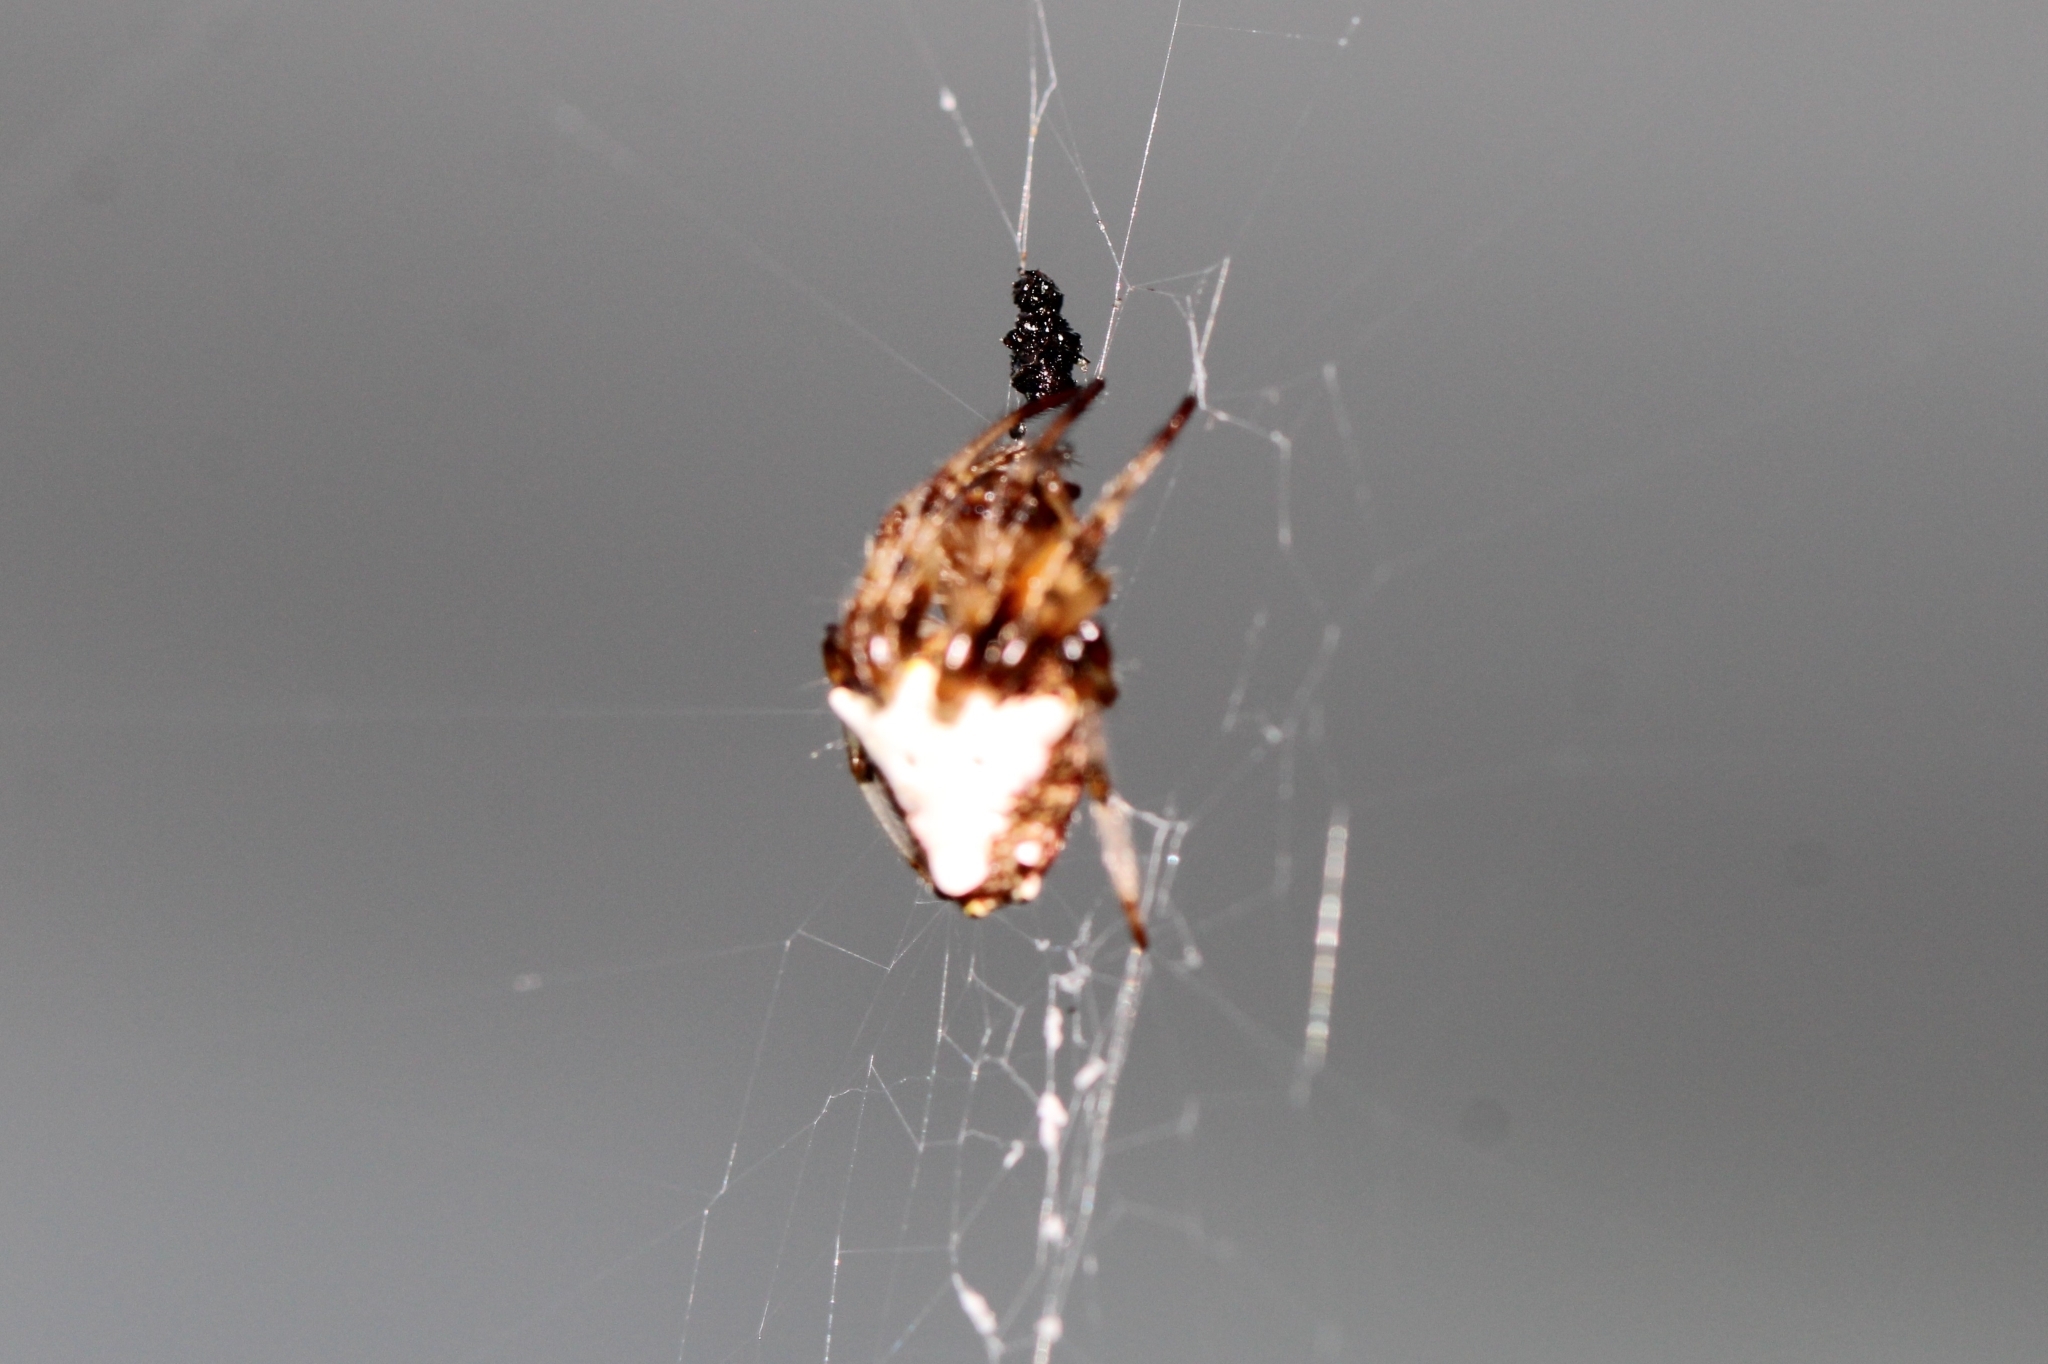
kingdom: Animalia
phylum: Arthropoda
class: Arachnida
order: Araneae
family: Araneidae
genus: Verrucosa
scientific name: Verrucosa arenata
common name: Orb weavers
